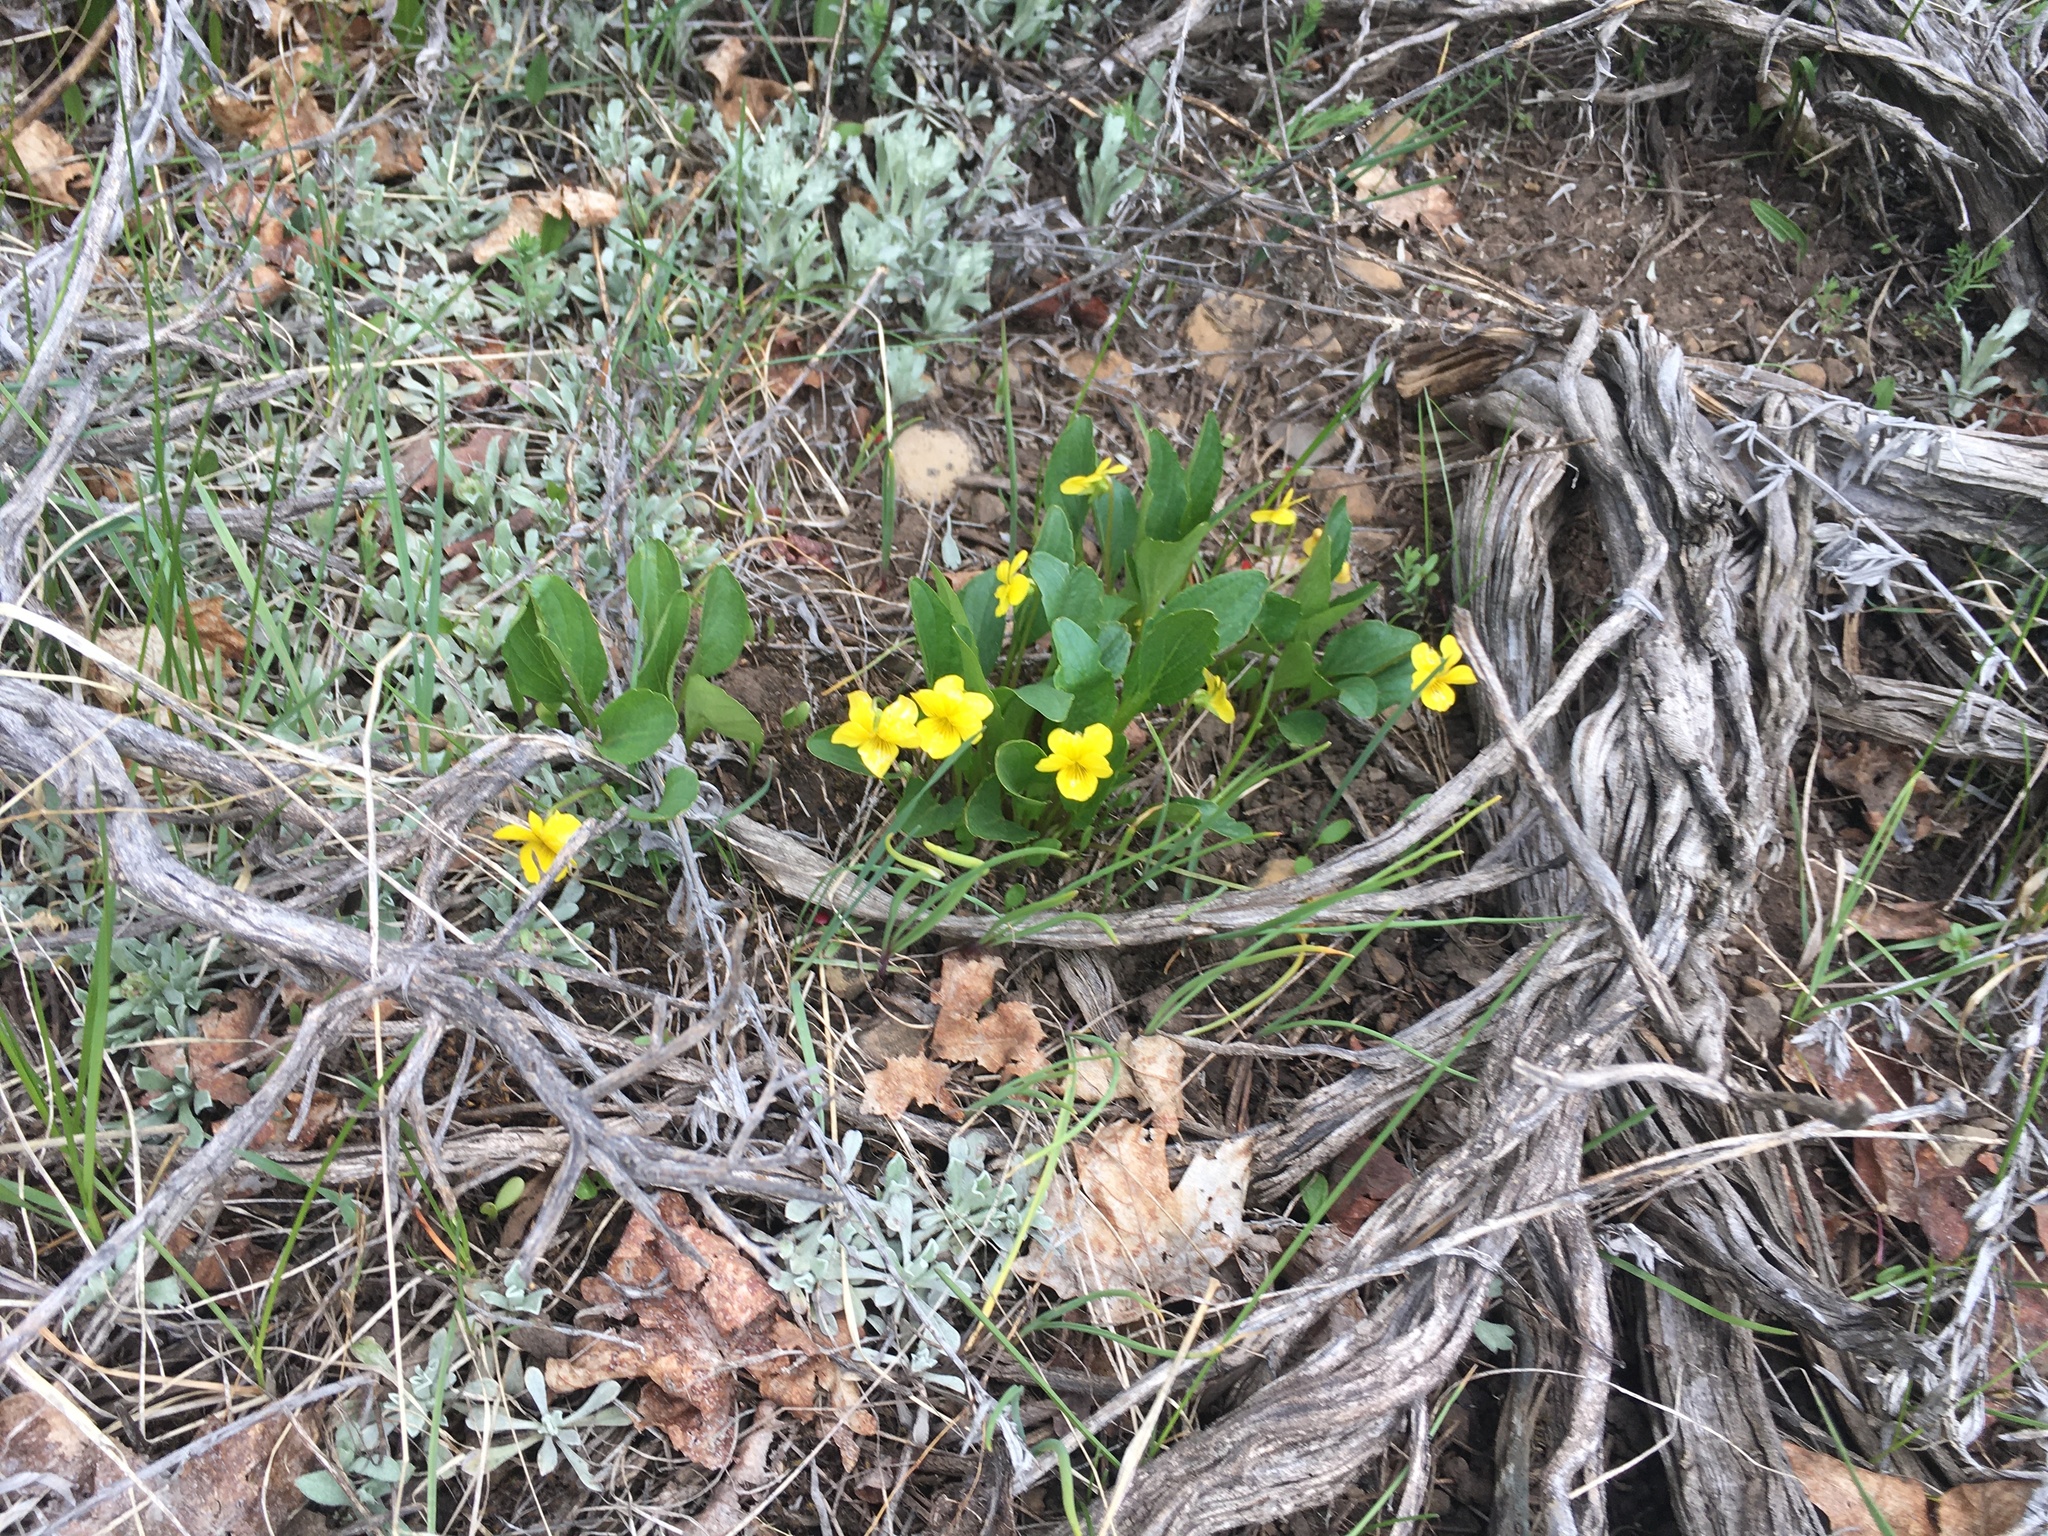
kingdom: Plantae
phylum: Tracheophyta
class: Magnoliopsida
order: Malpighiales
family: Violaceae
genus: Viola
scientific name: Viola nuttallii
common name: Yellow prairie violet
